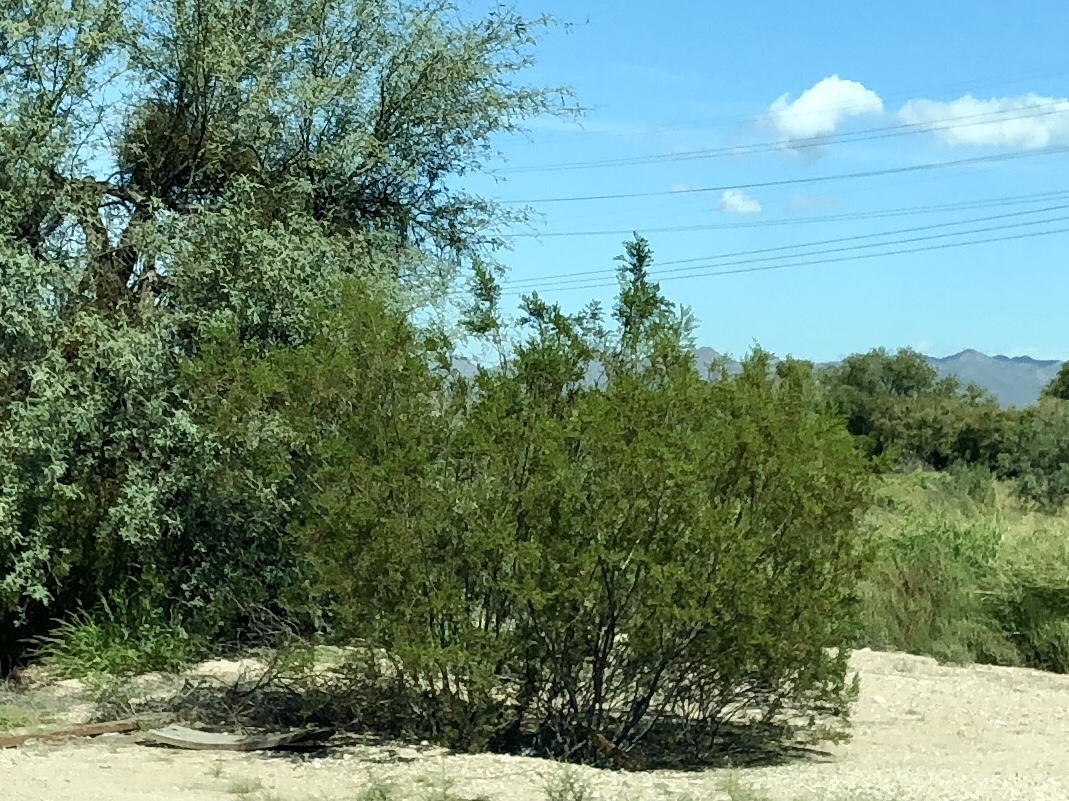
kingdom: Plantae
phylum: Tracheophyta
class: Magnoliopsida
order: Zygophyllales
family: Zygophyllaceae
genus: Larrea
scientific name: Larrea tridentata
